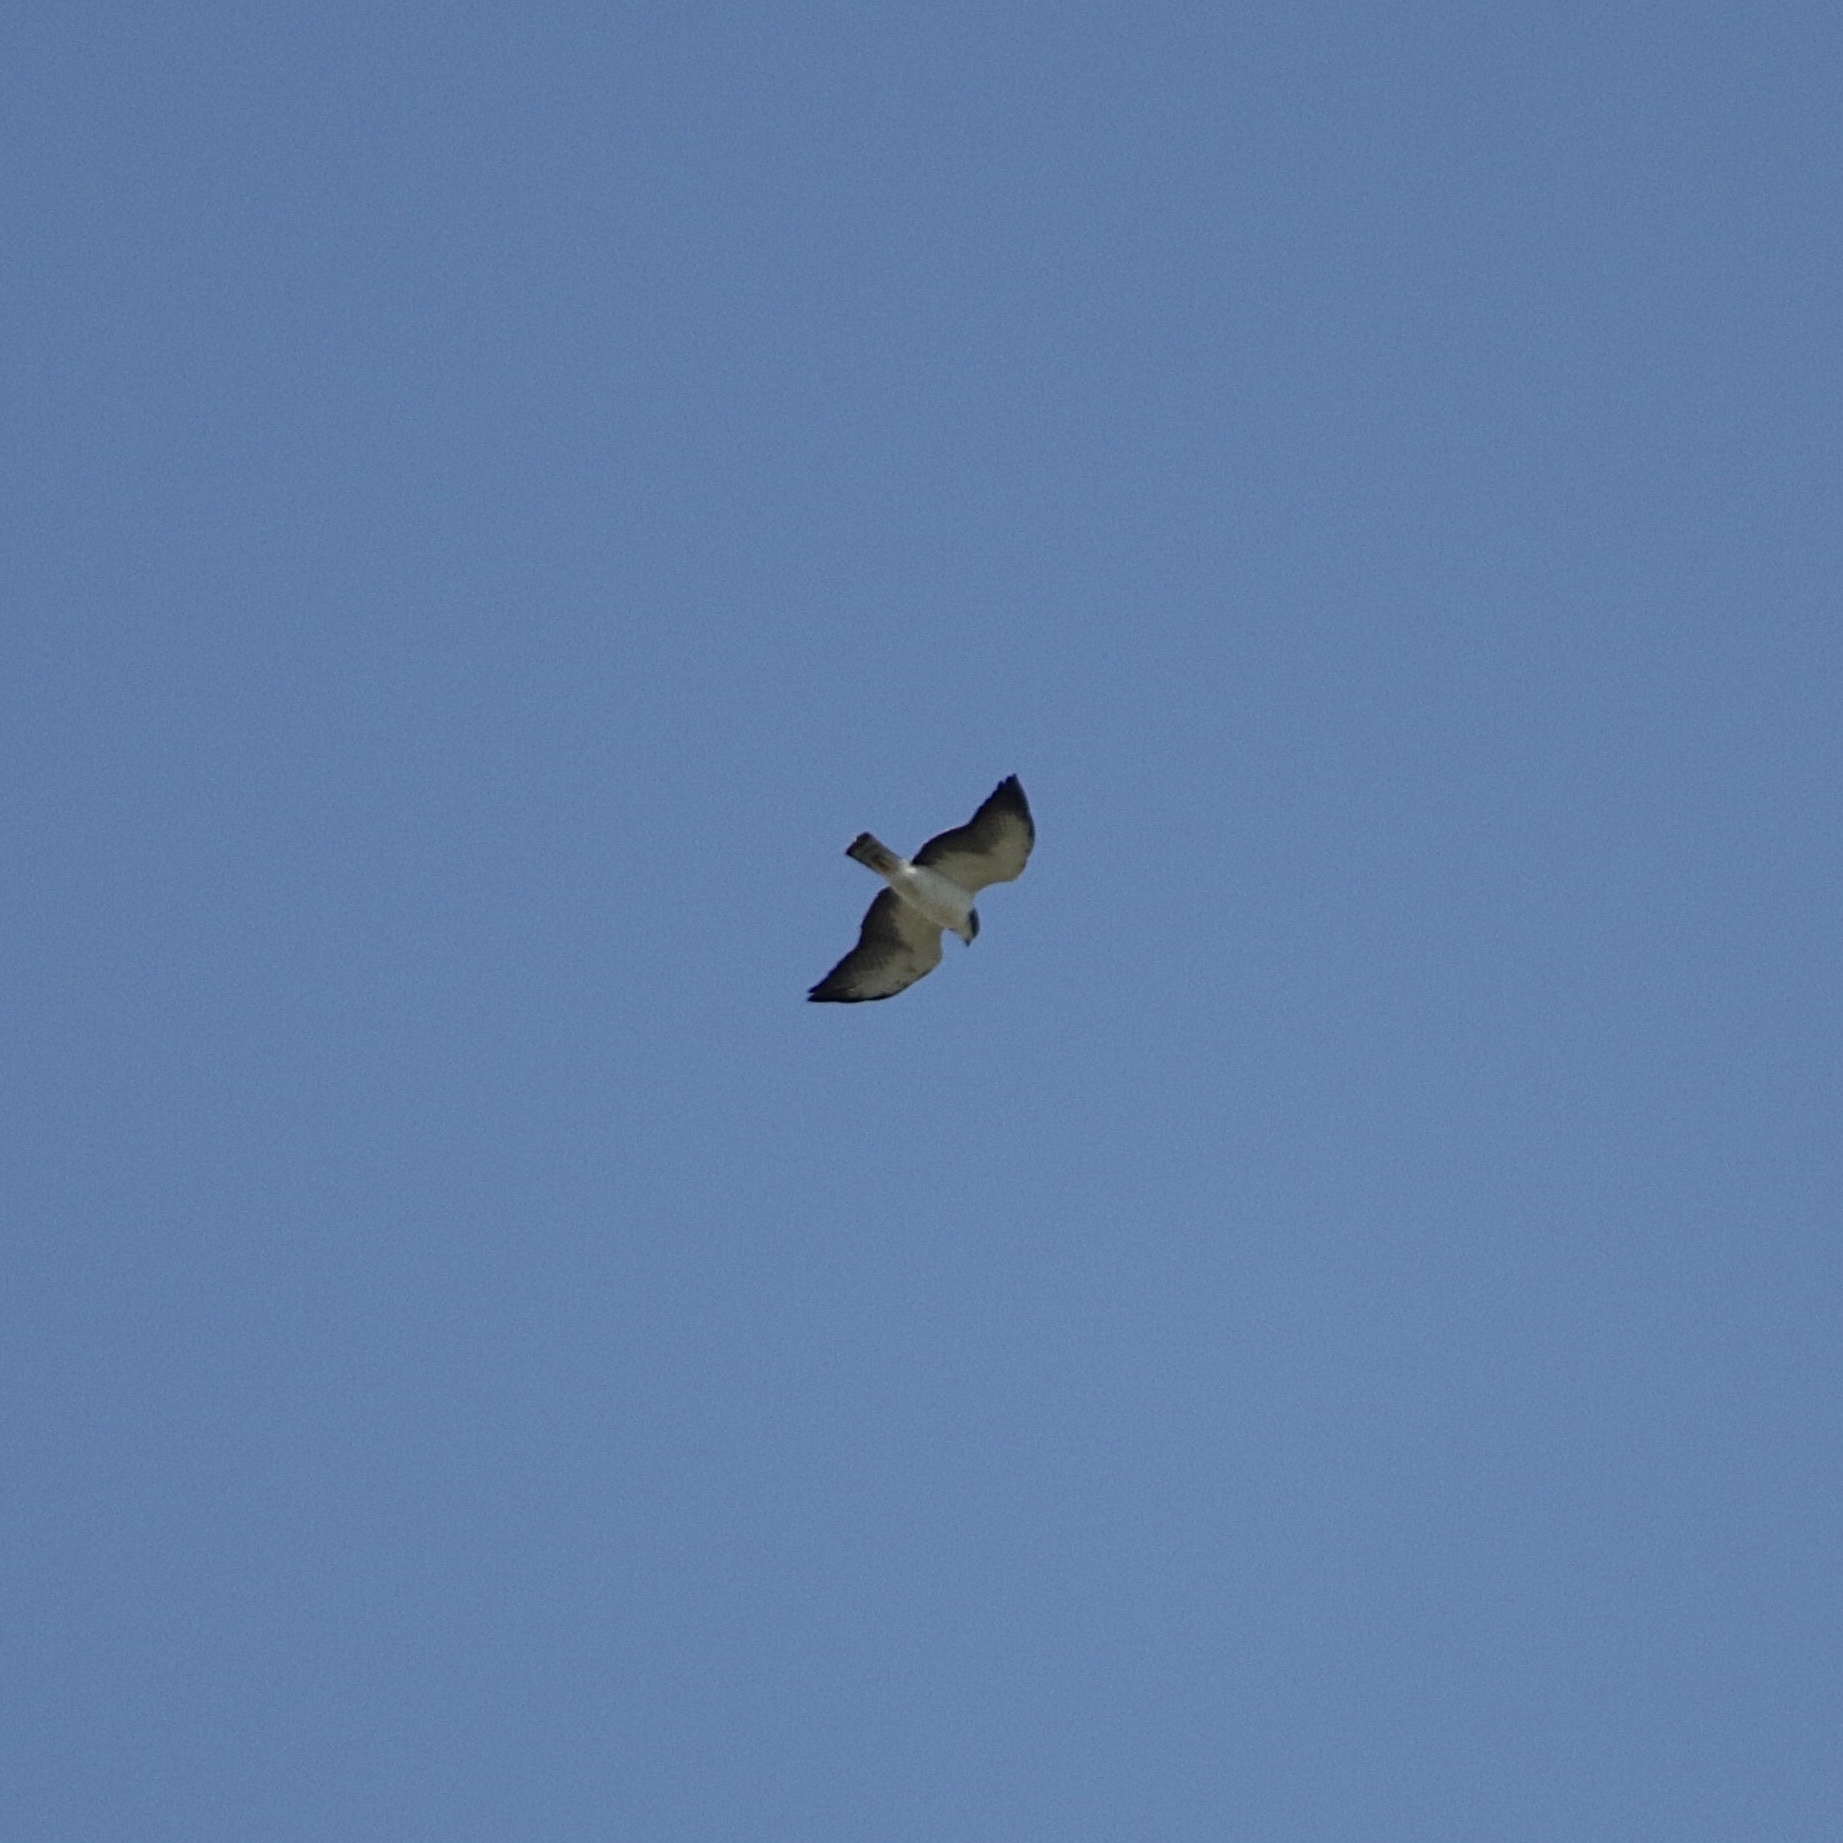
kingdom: Animalia
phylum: Chordata
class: Aves
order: Accipitriformes
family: Accipitridae
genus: Buteo
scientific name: Buteo brachyurus
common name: Short-tailed hawk
